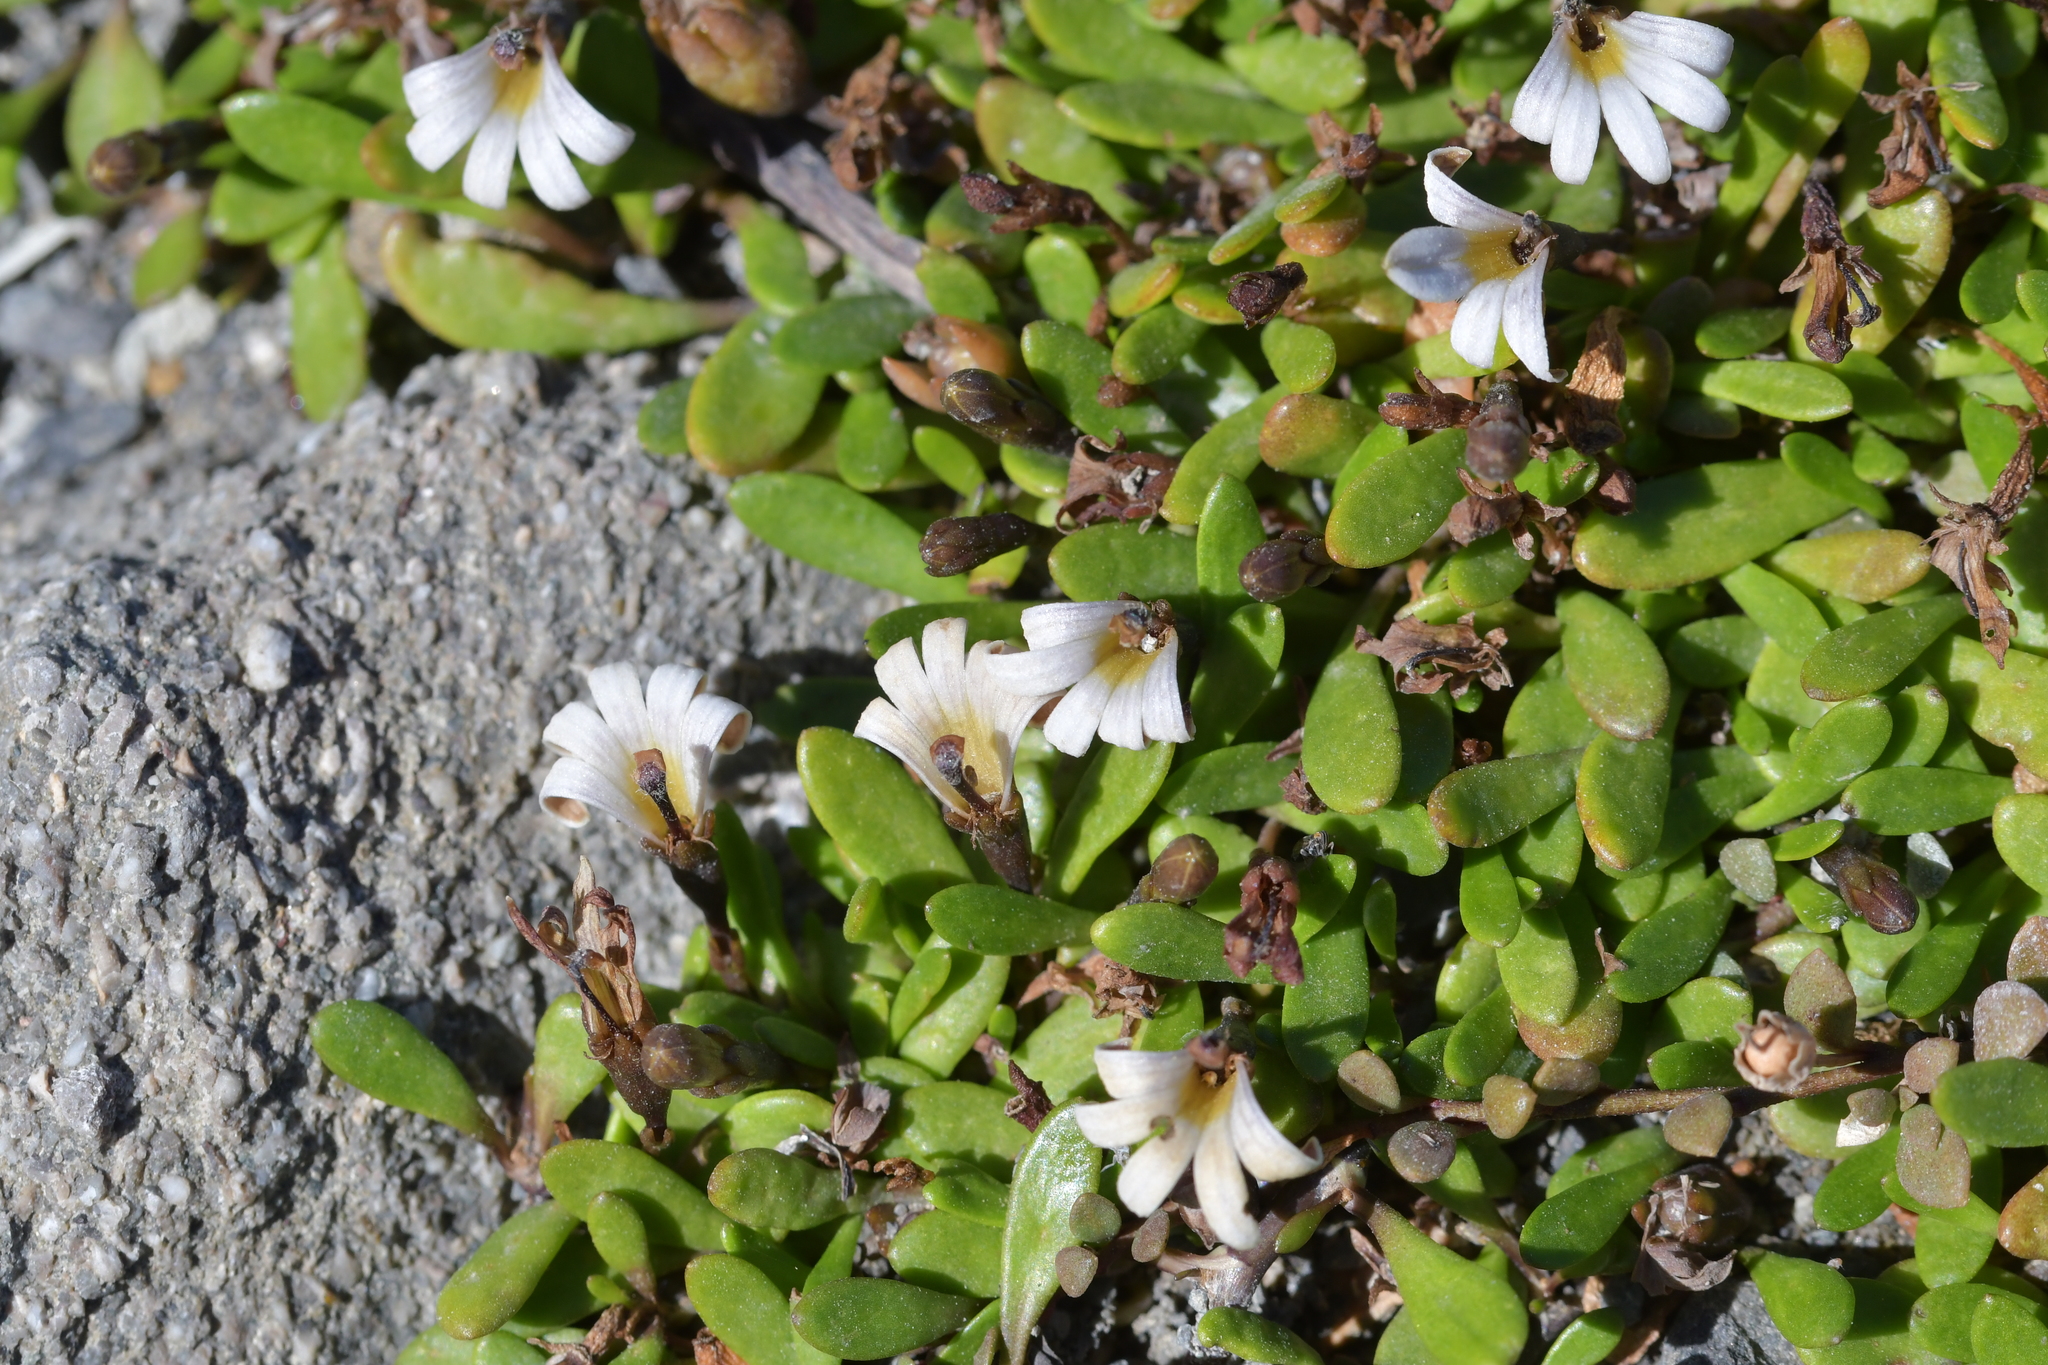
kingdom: Plantae
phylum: Tracheophyta
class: Magnoliopsida
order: Asterales
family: Goodeniaceae
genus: Goodenia
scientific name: Goodenia radicans
